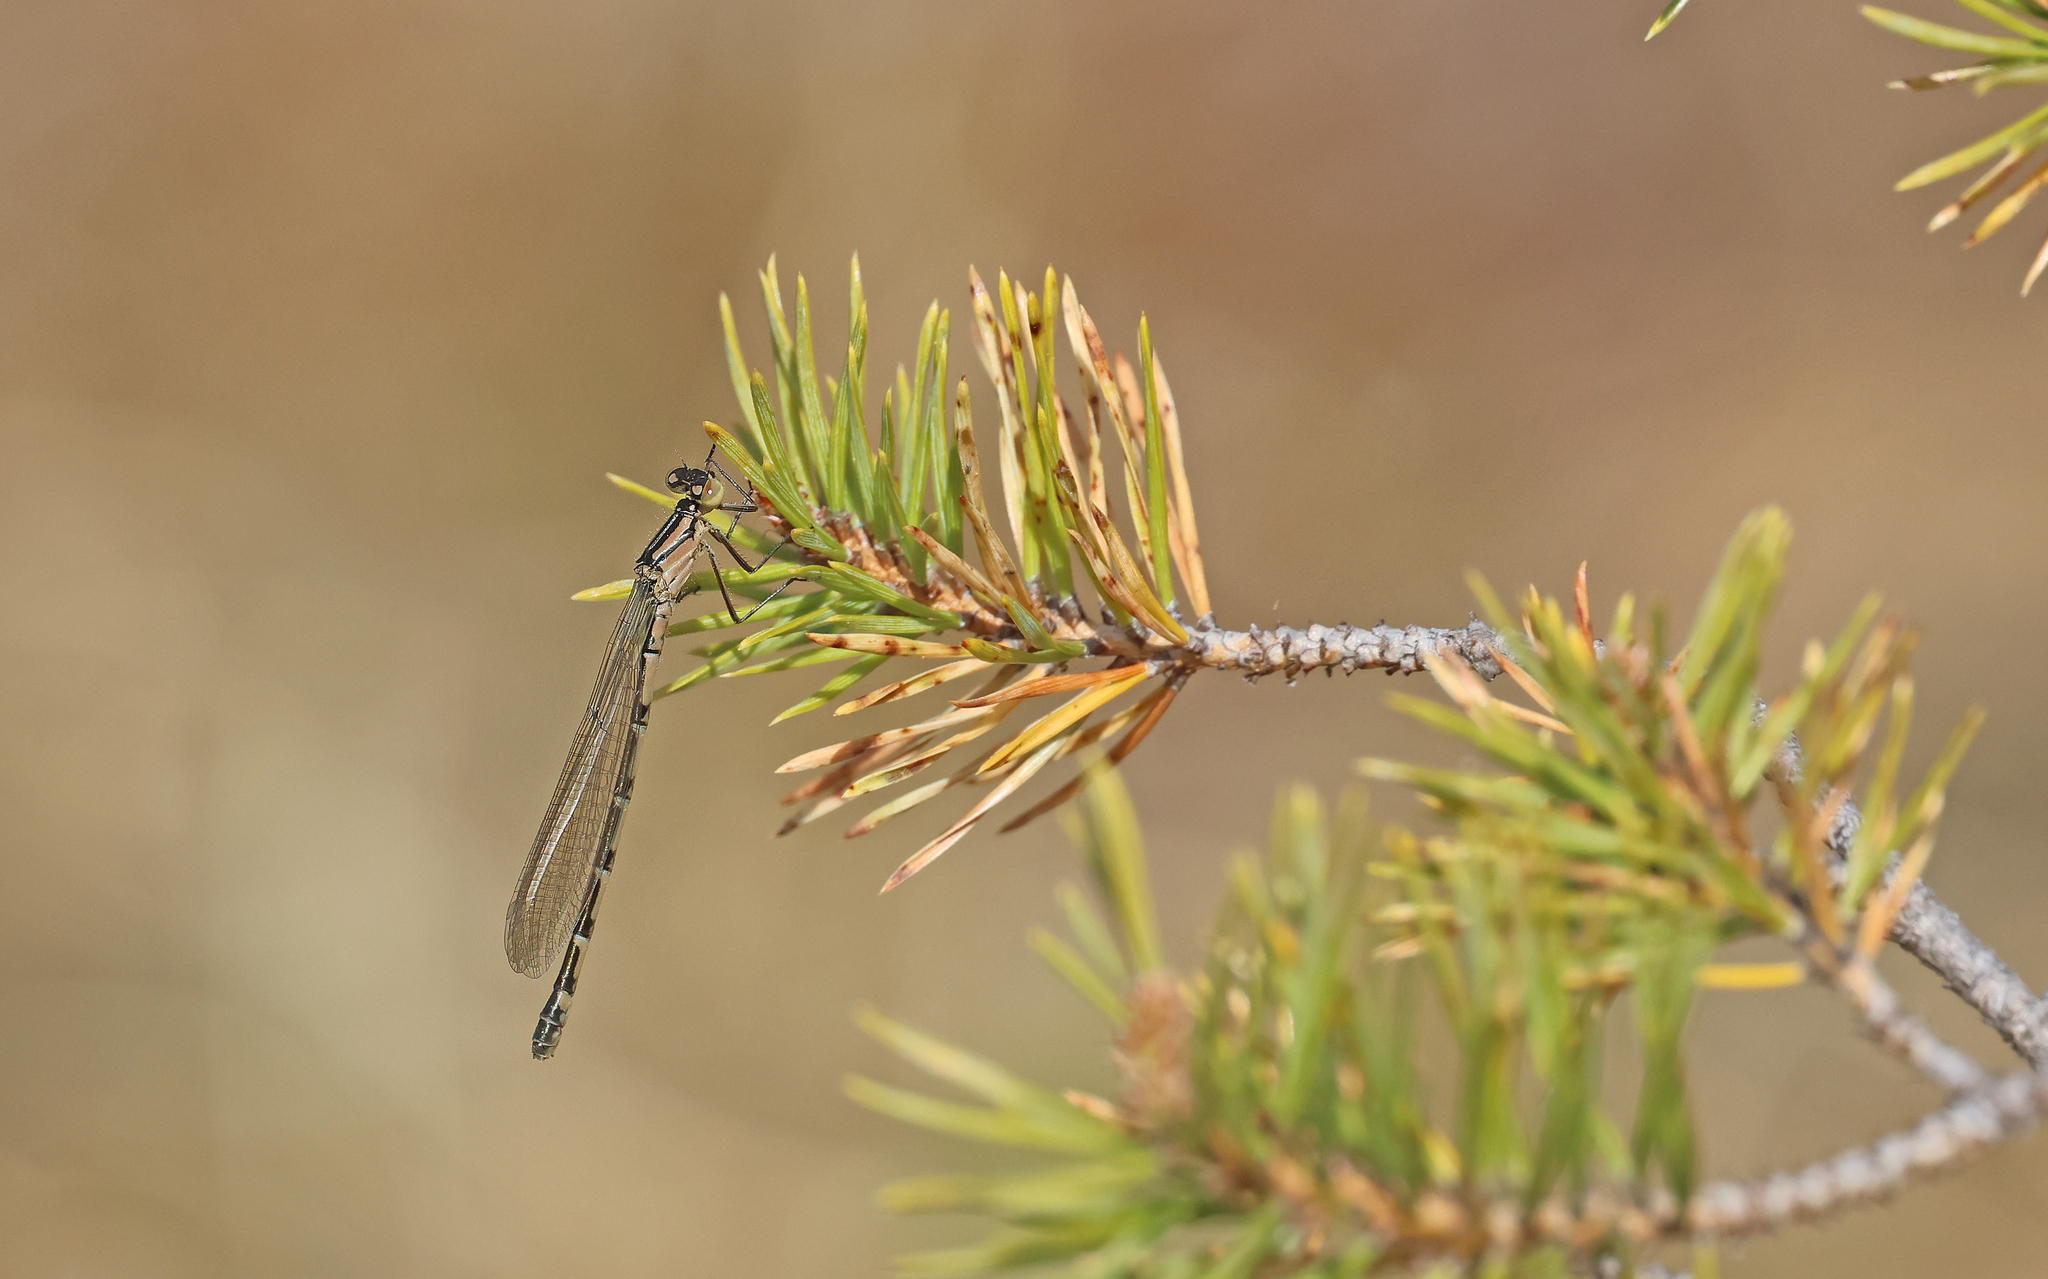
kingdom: Animalia
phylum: Arthropoda
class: Insecta
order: Odonata
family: Coenagrionidae
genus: Enallagma
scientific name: Enallagma cyathigerum
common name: Common blue damselfly
